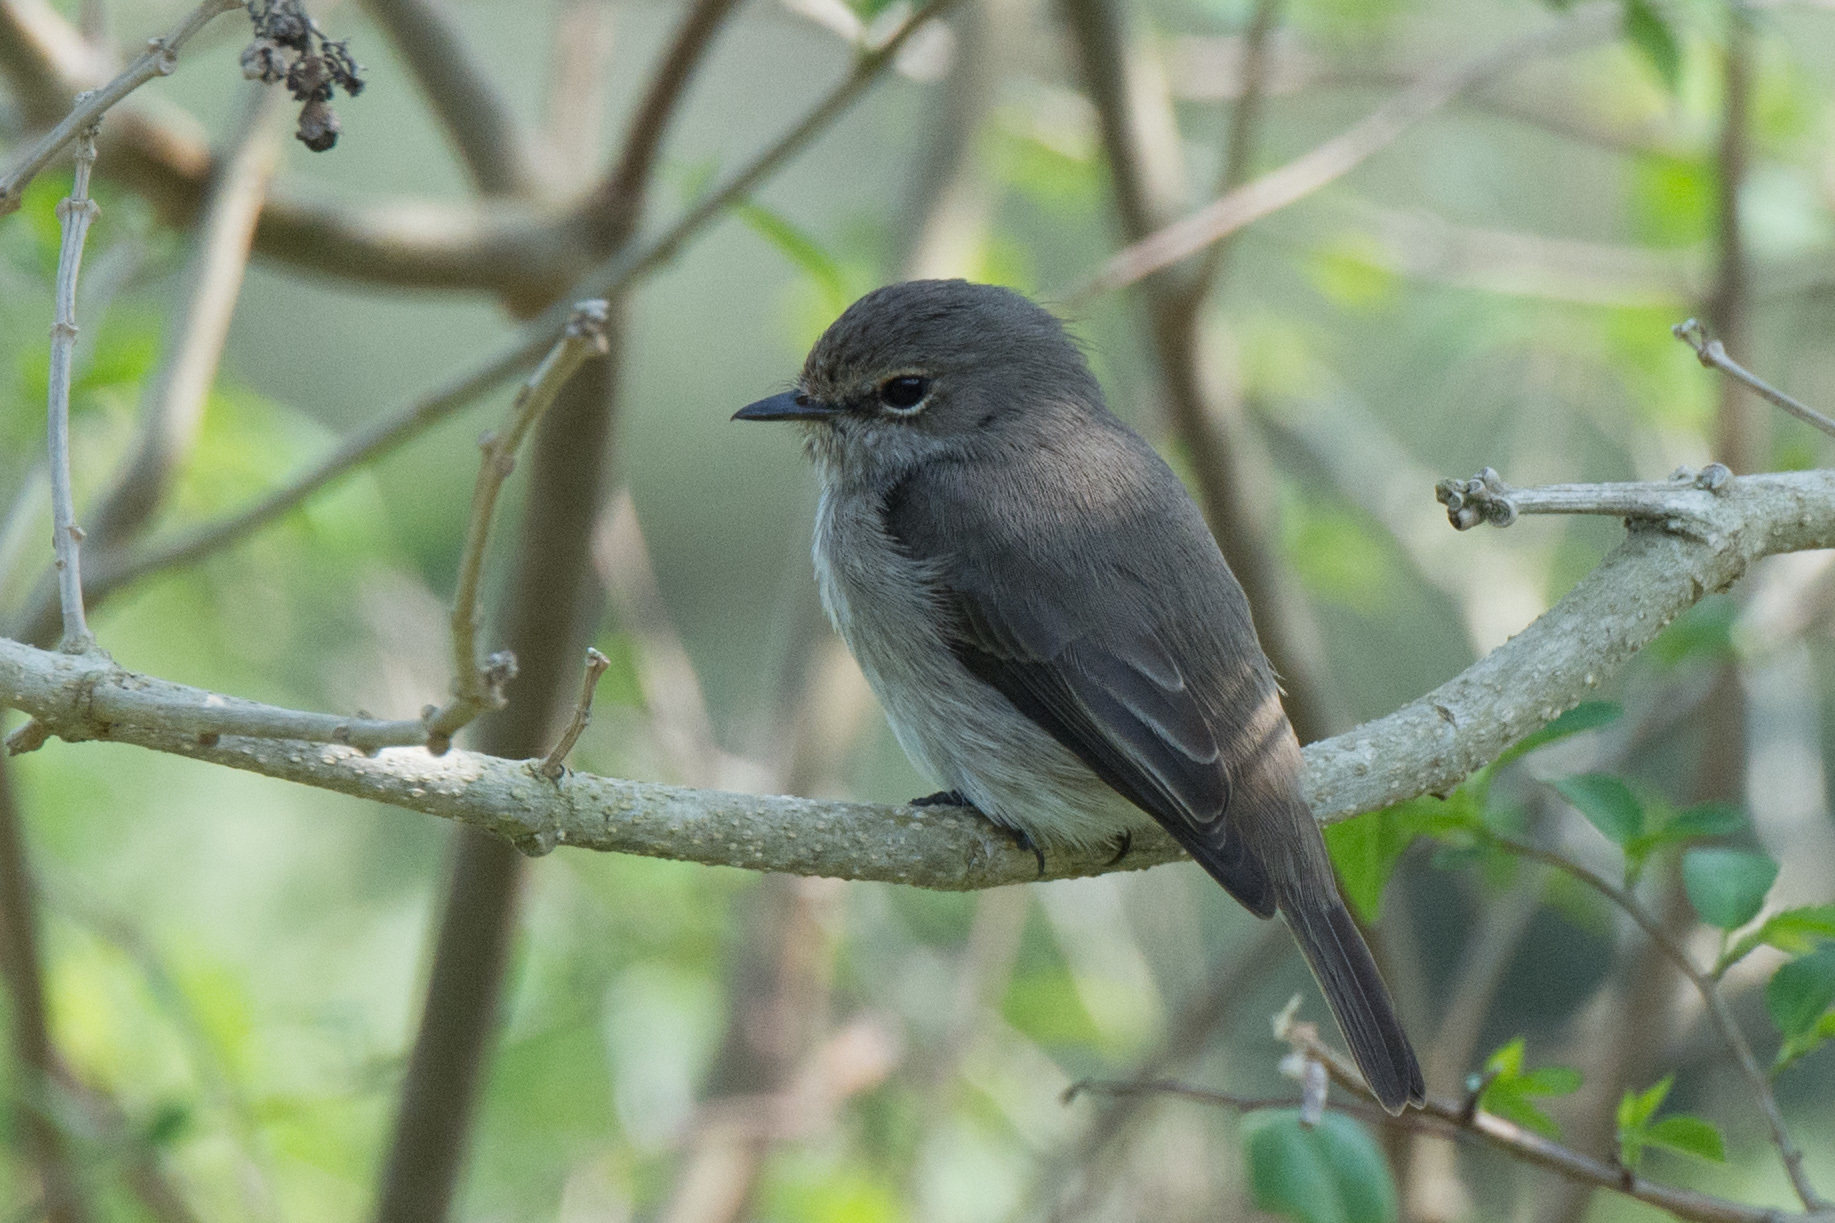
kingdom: Animalia
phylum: Chordata
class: Aves
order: Passeriformes
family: Muscicapidae
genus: Muscicapa
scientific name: Muscicapa adusta
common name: African dusky flycatcher
